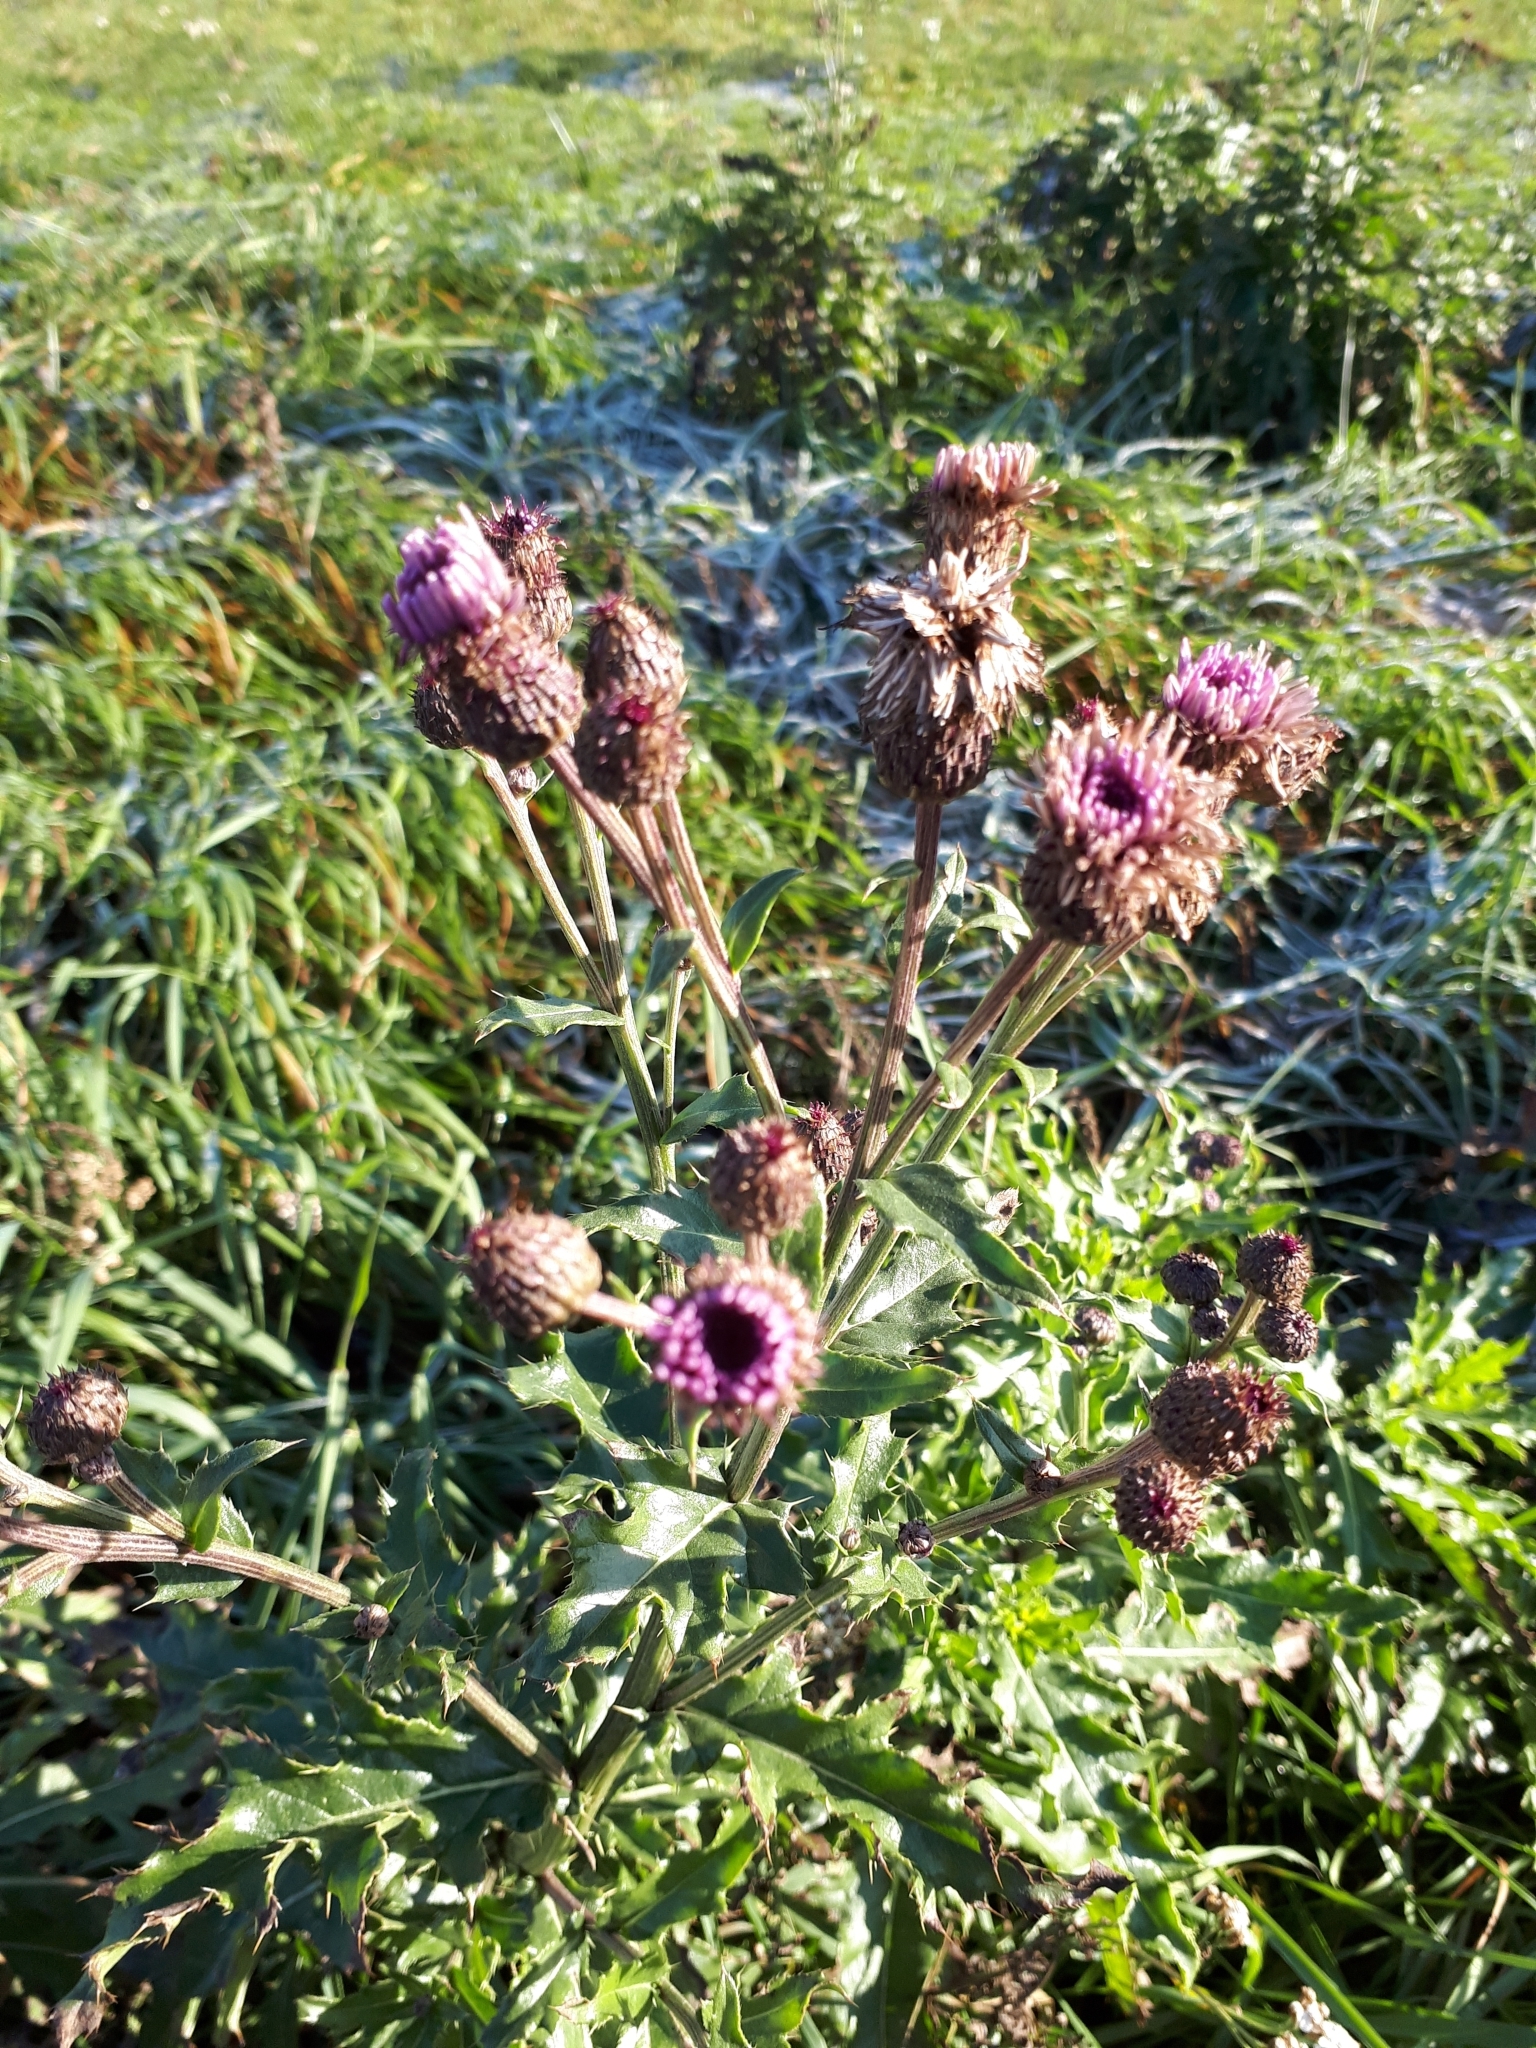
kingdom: Plantae
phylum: Tracheophyta
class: Magnoliopsida
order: Asterales
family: Asteraceae
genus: Cirsium
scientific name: Cirsium arvense
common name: Creeping thistle
